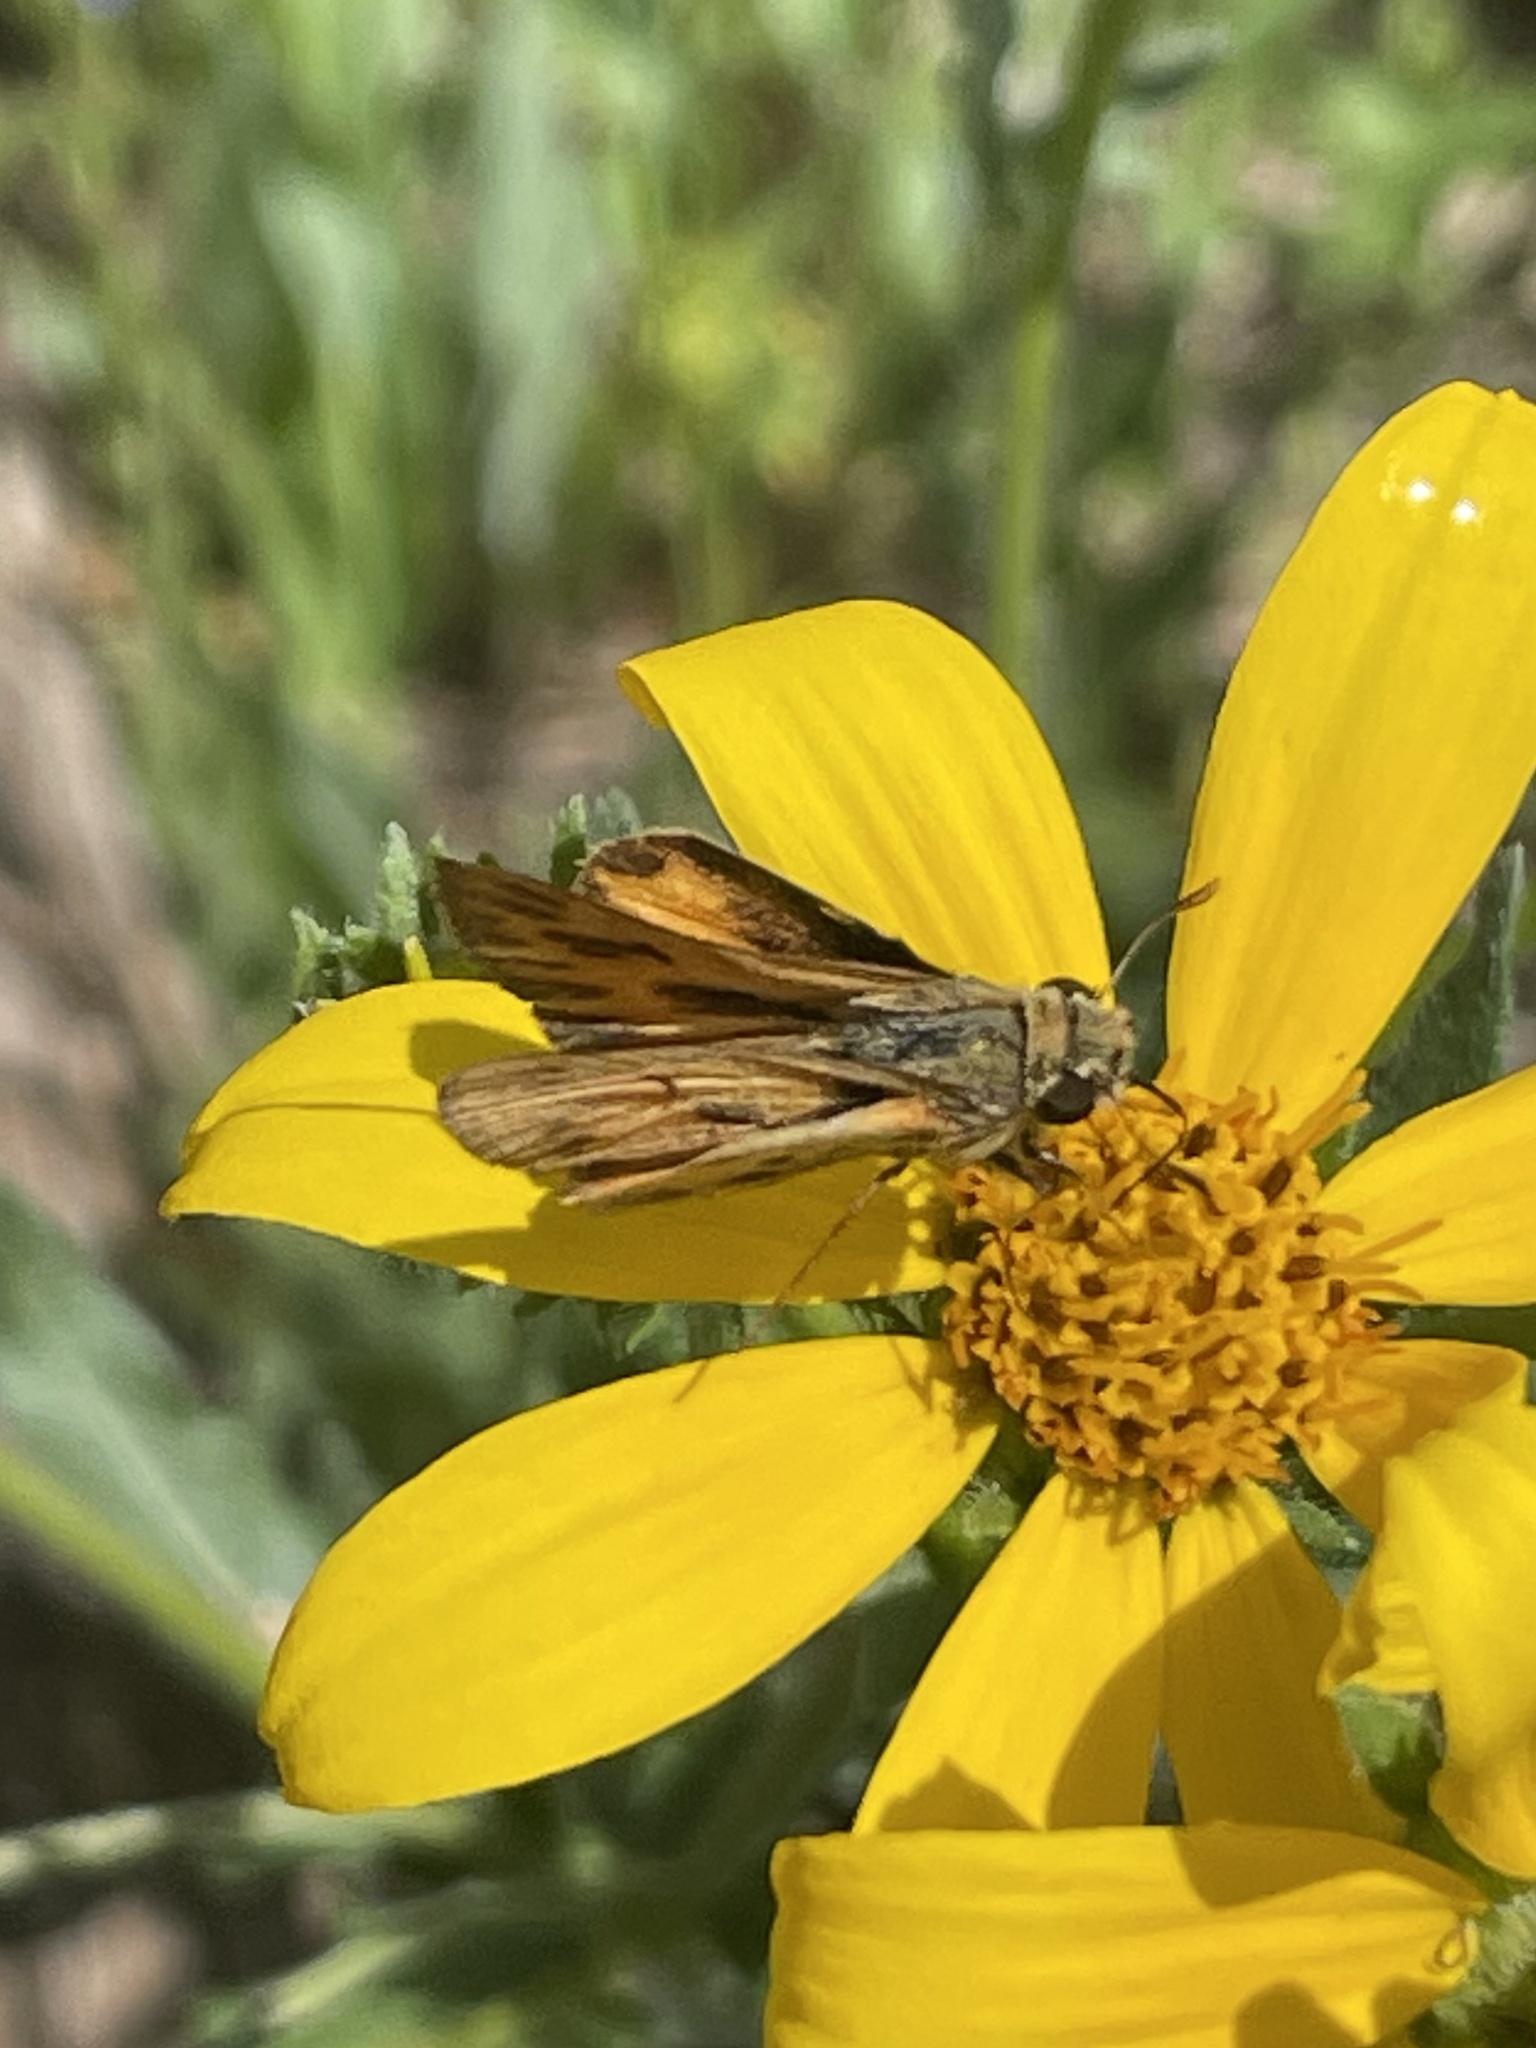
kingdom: Animalia
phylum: Arthropoda
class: Insecta
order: Lepidoptera
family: Hesperiidae
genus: Hylephila
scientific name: Hylephila phyleus
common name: Fiery skipper
